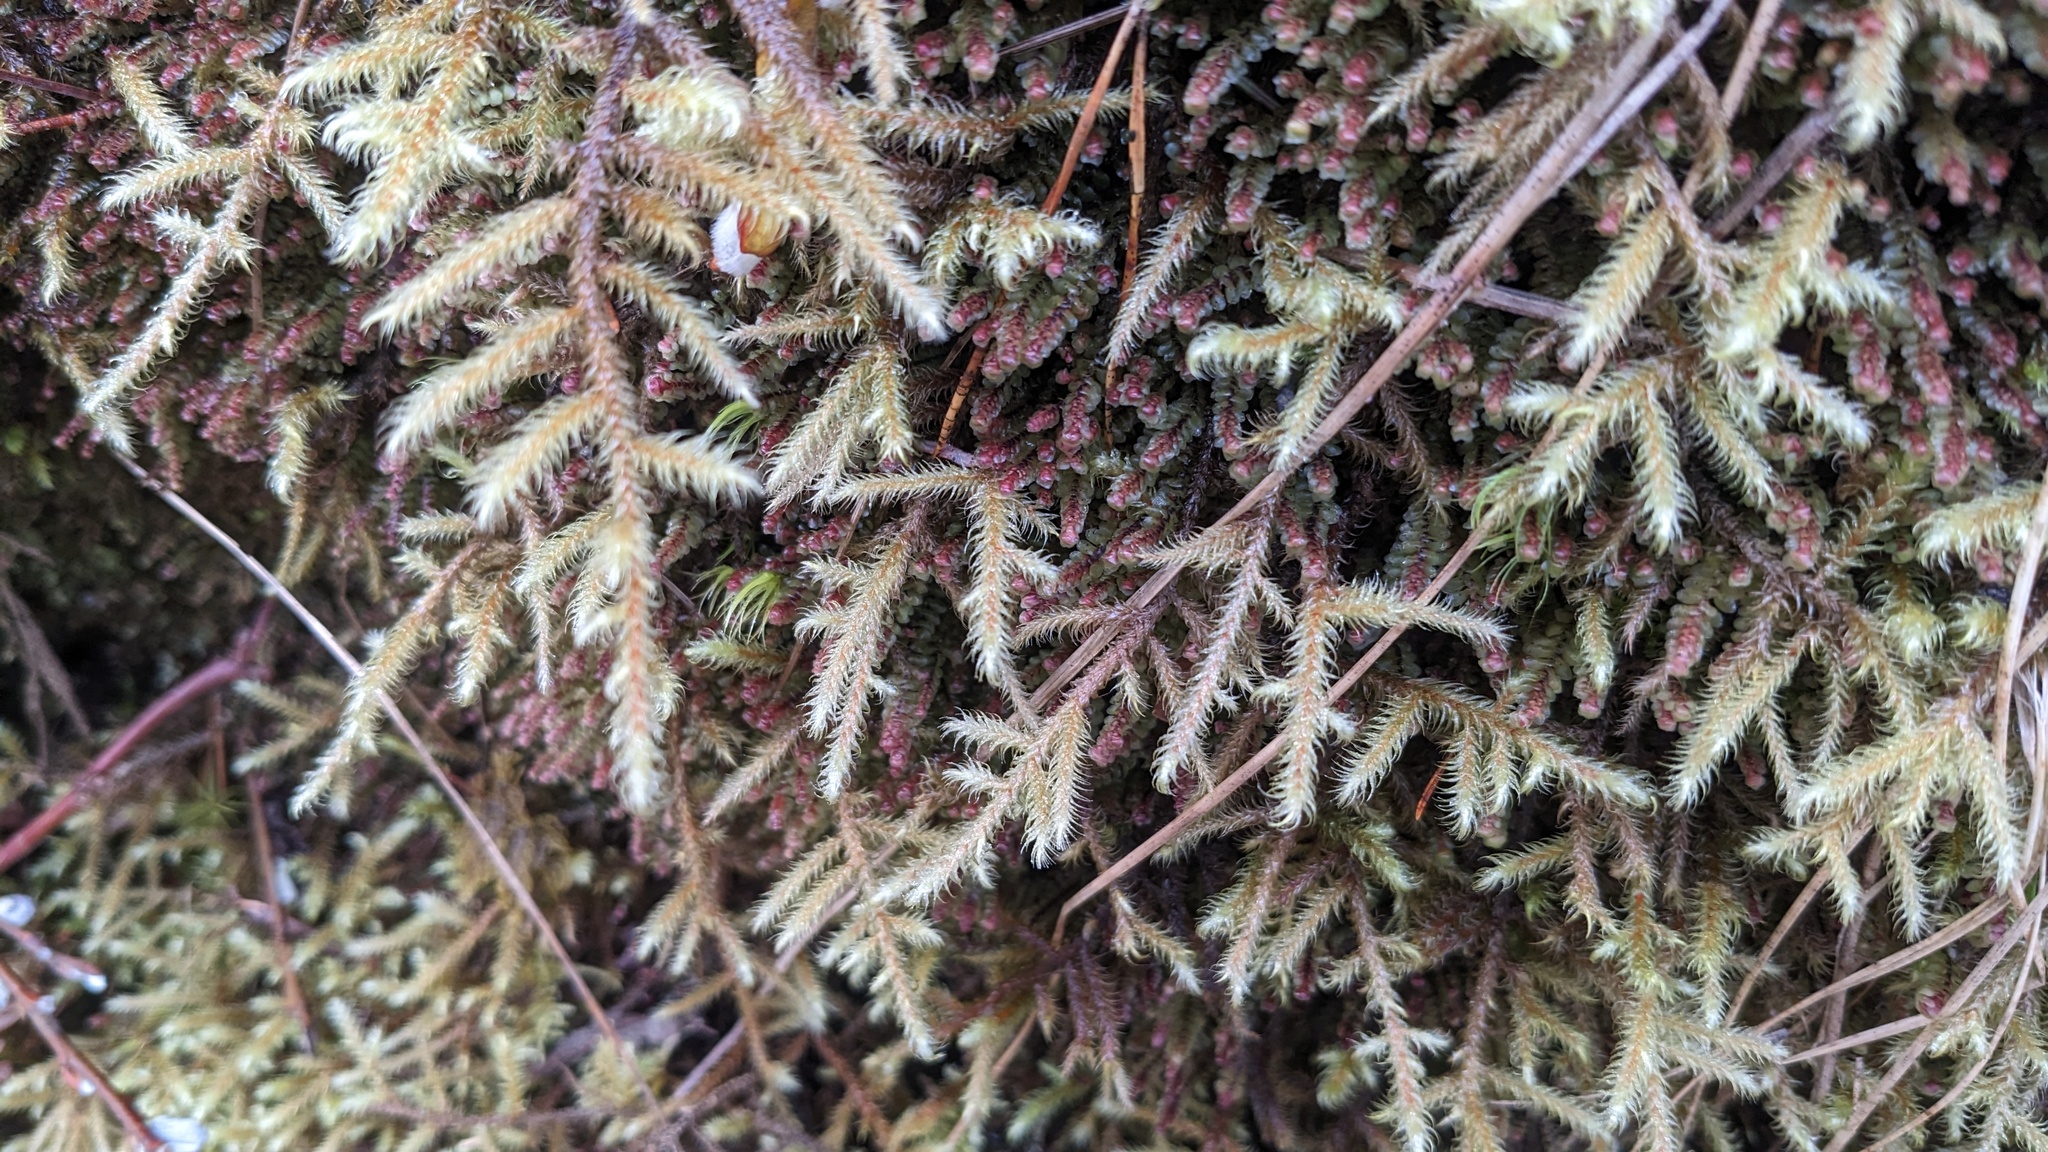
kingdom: Plantae
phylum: Bryophyta
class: Bryopsida
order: Hypnales
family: Hylocomiaceae
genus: Rhytidiadelphus
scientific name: Rhytidiadelphus loreus
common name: Lanky moss
